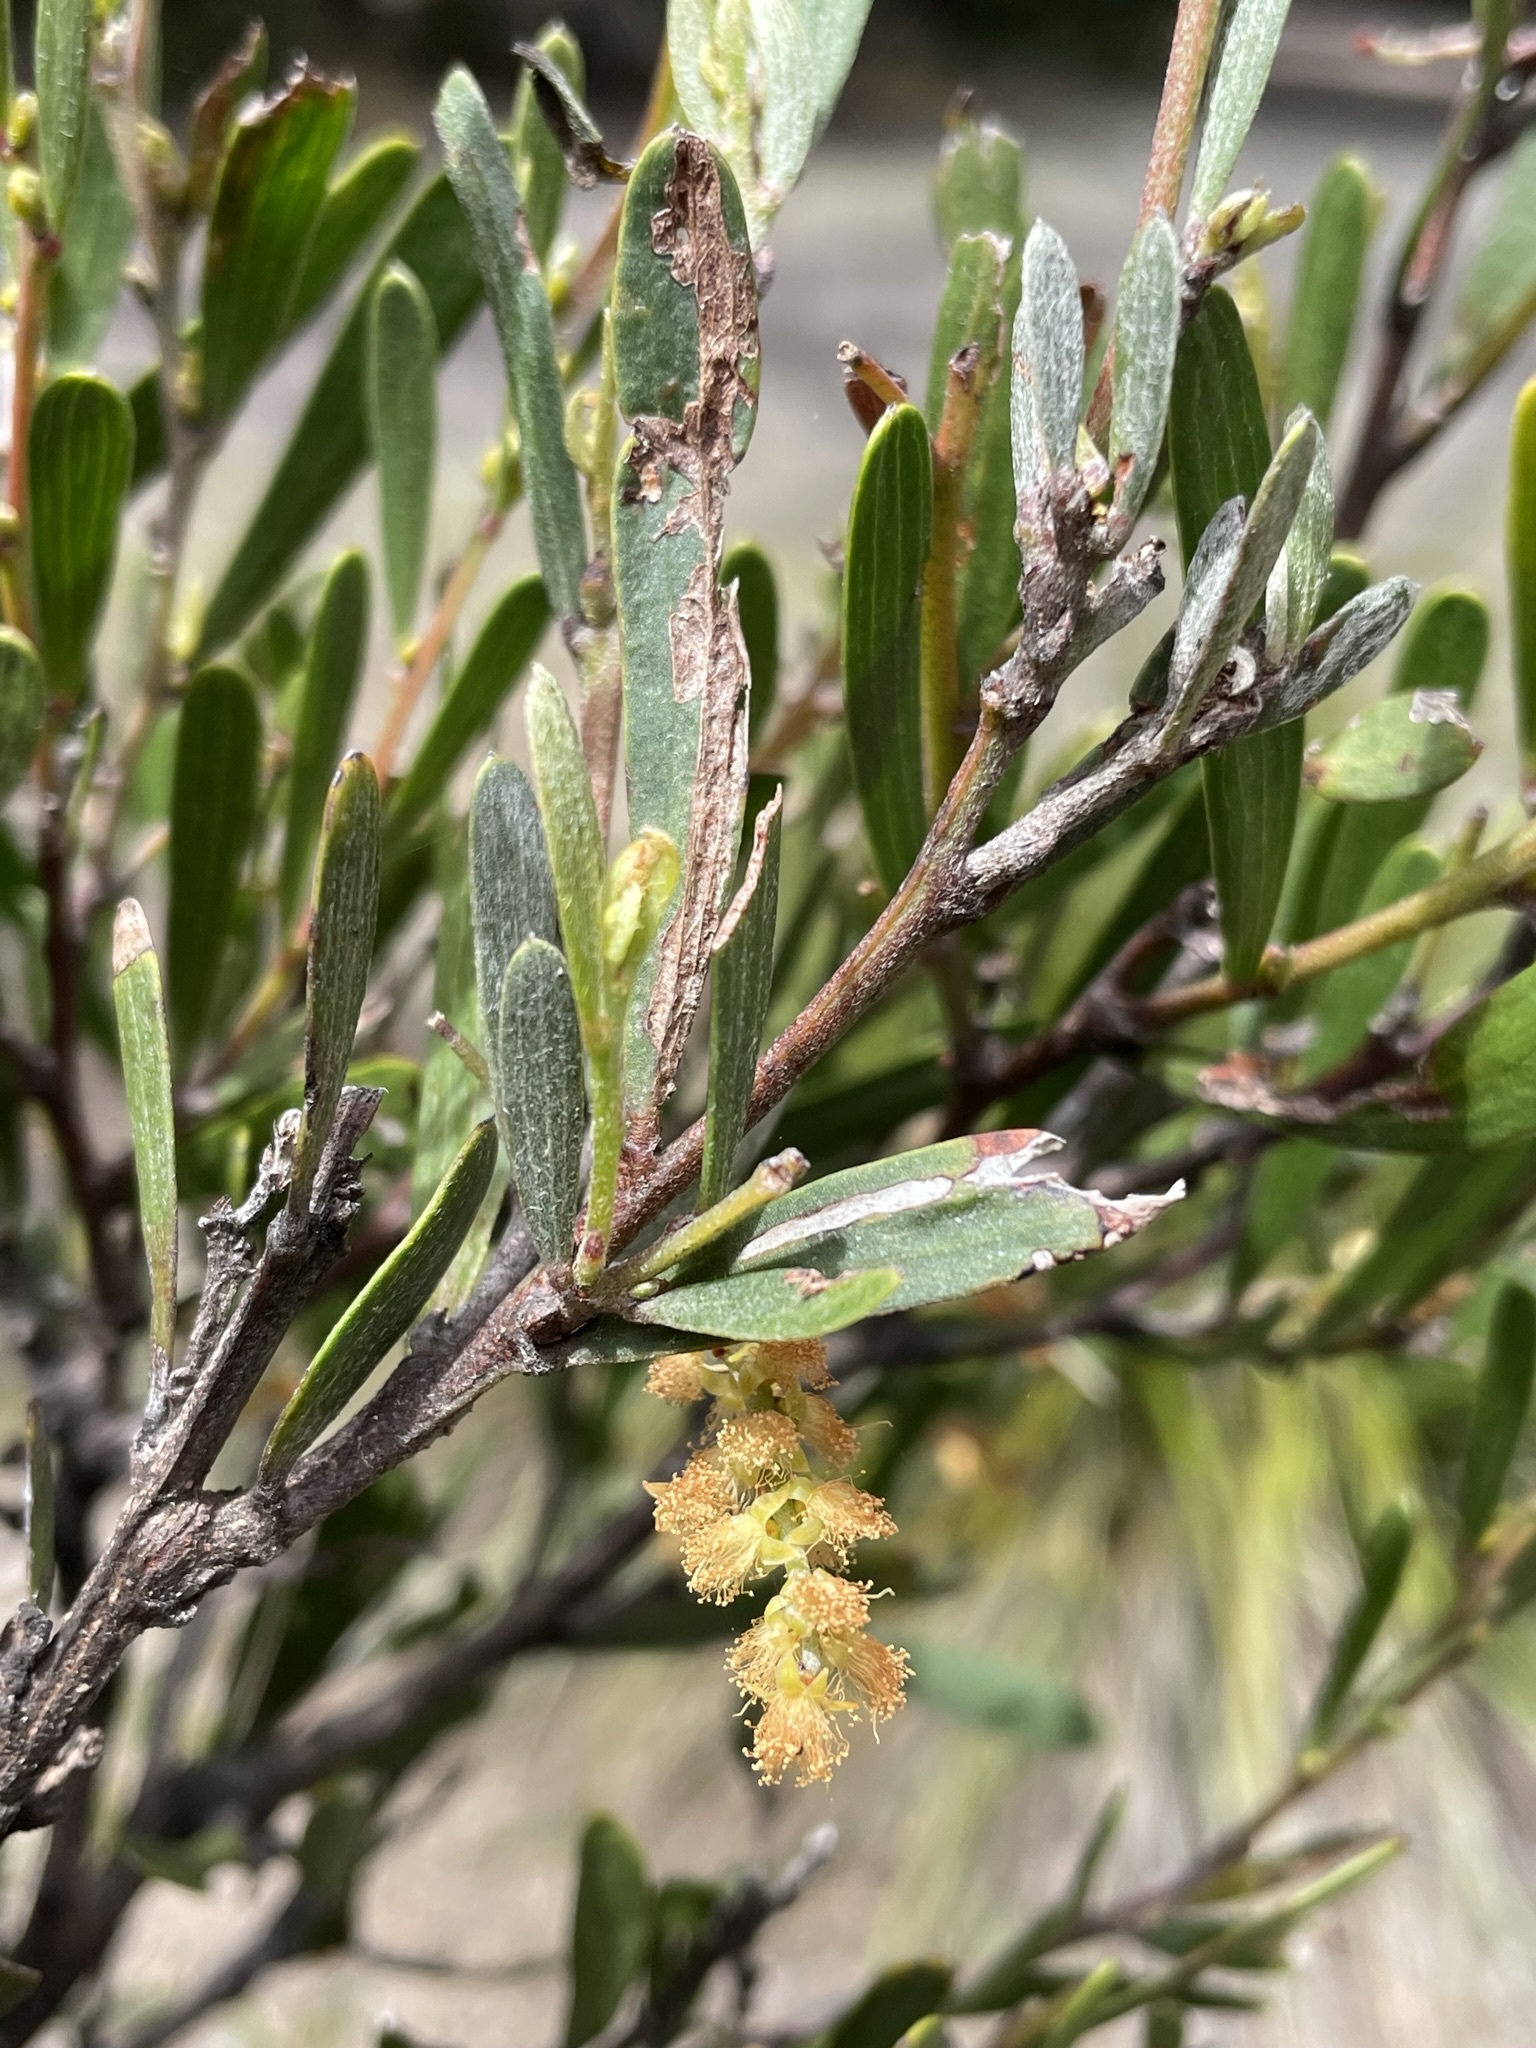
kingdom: Plantae
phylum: Tracheophyta
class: Magnoliopsida
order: Fabales
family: Fabaceae
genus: Acacia
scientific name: Acacia mucronata
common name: Variable sallow wattle
